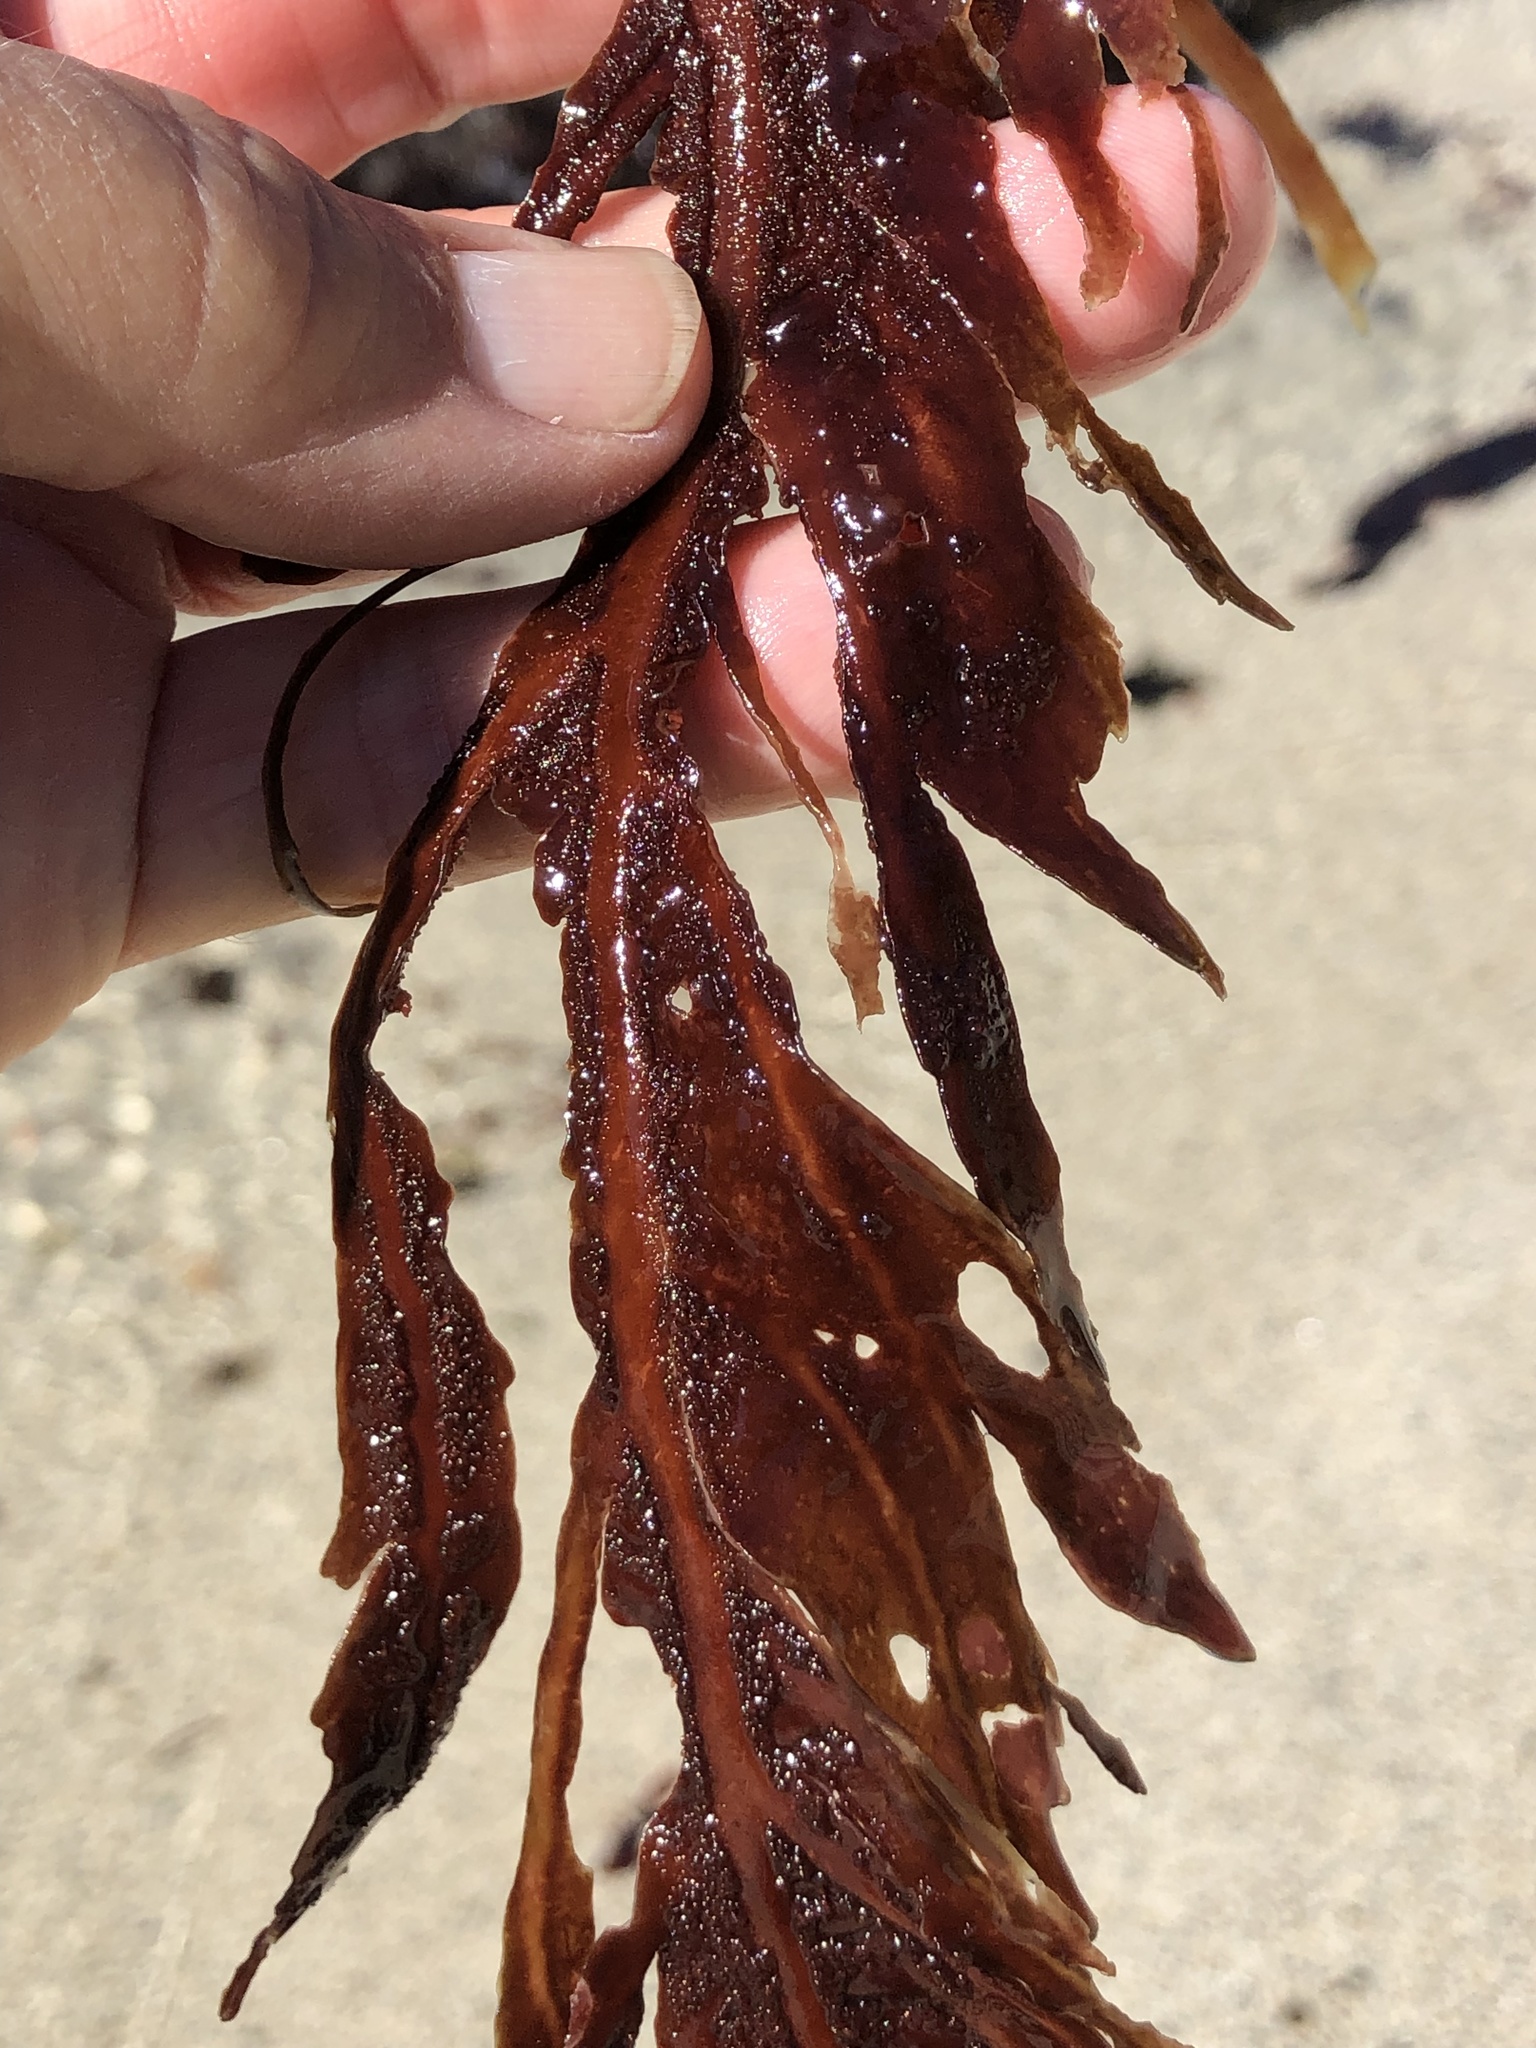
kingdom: Plantae
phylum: Rhodophyta
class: Florideophyceae
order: Gigartinales
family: Kallymeniaceae
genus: Erythrophyllum
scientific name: Erythrophyllum delesserioides
